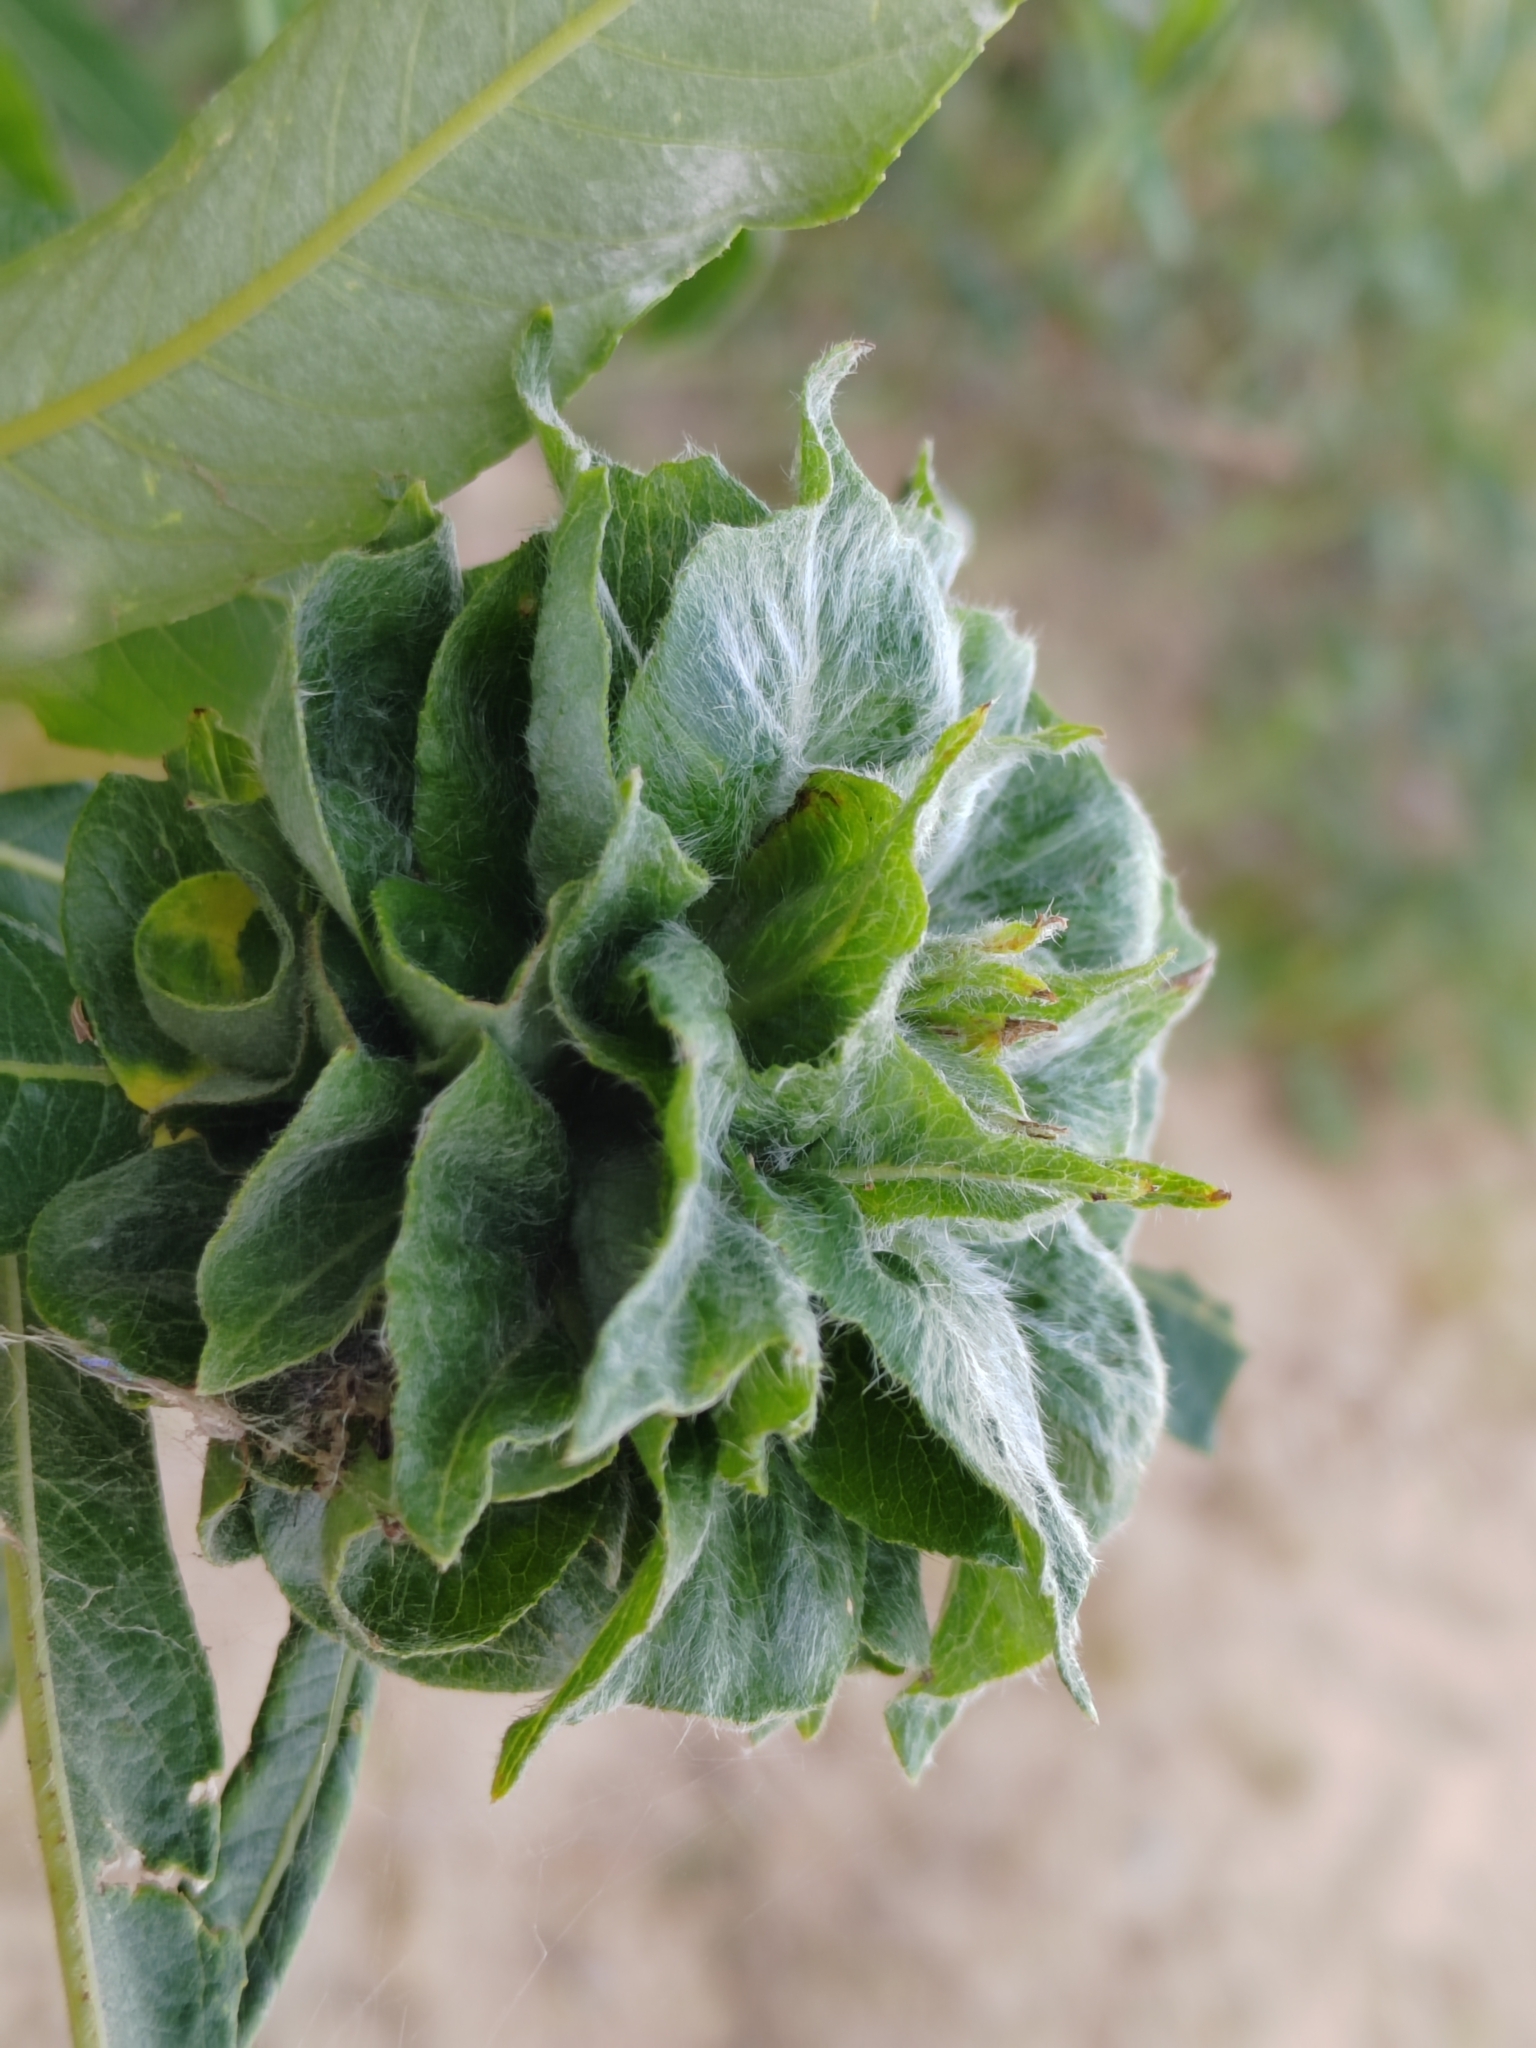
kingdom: Animalia
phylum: Arthropoda
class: Insecta
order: Diptera
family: Cecidomyiidae
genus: Rabdophaga
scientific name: Rabdophaga rosaria
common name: Willow rose gall midge
